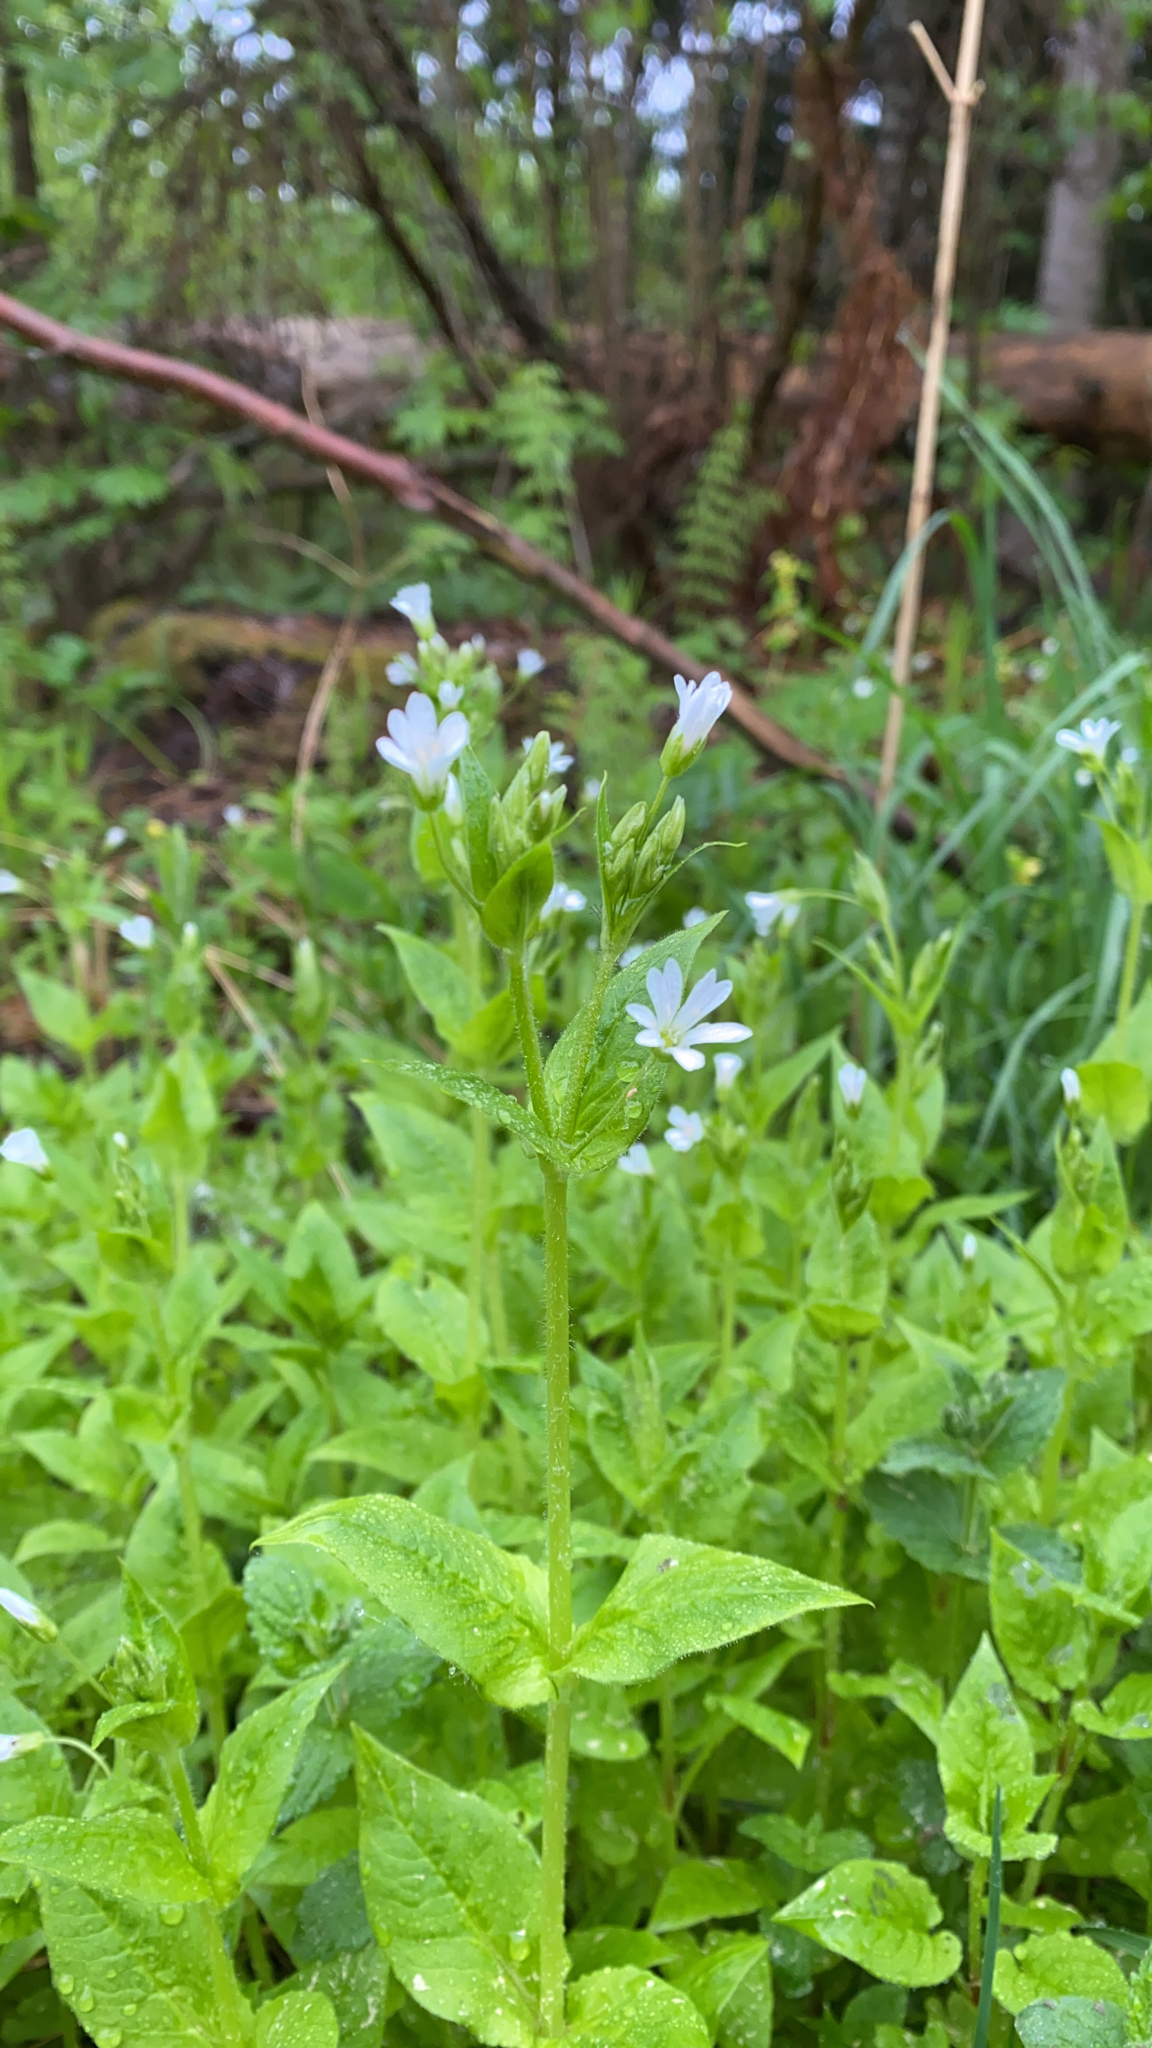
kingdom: Plantae
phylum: Tracheophyta
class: Magnoliopsida
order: Caryophyllales
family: Caryophyllaceae
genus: Stellaria
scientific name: Stellaria nemorum
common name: Wood stitchwort
